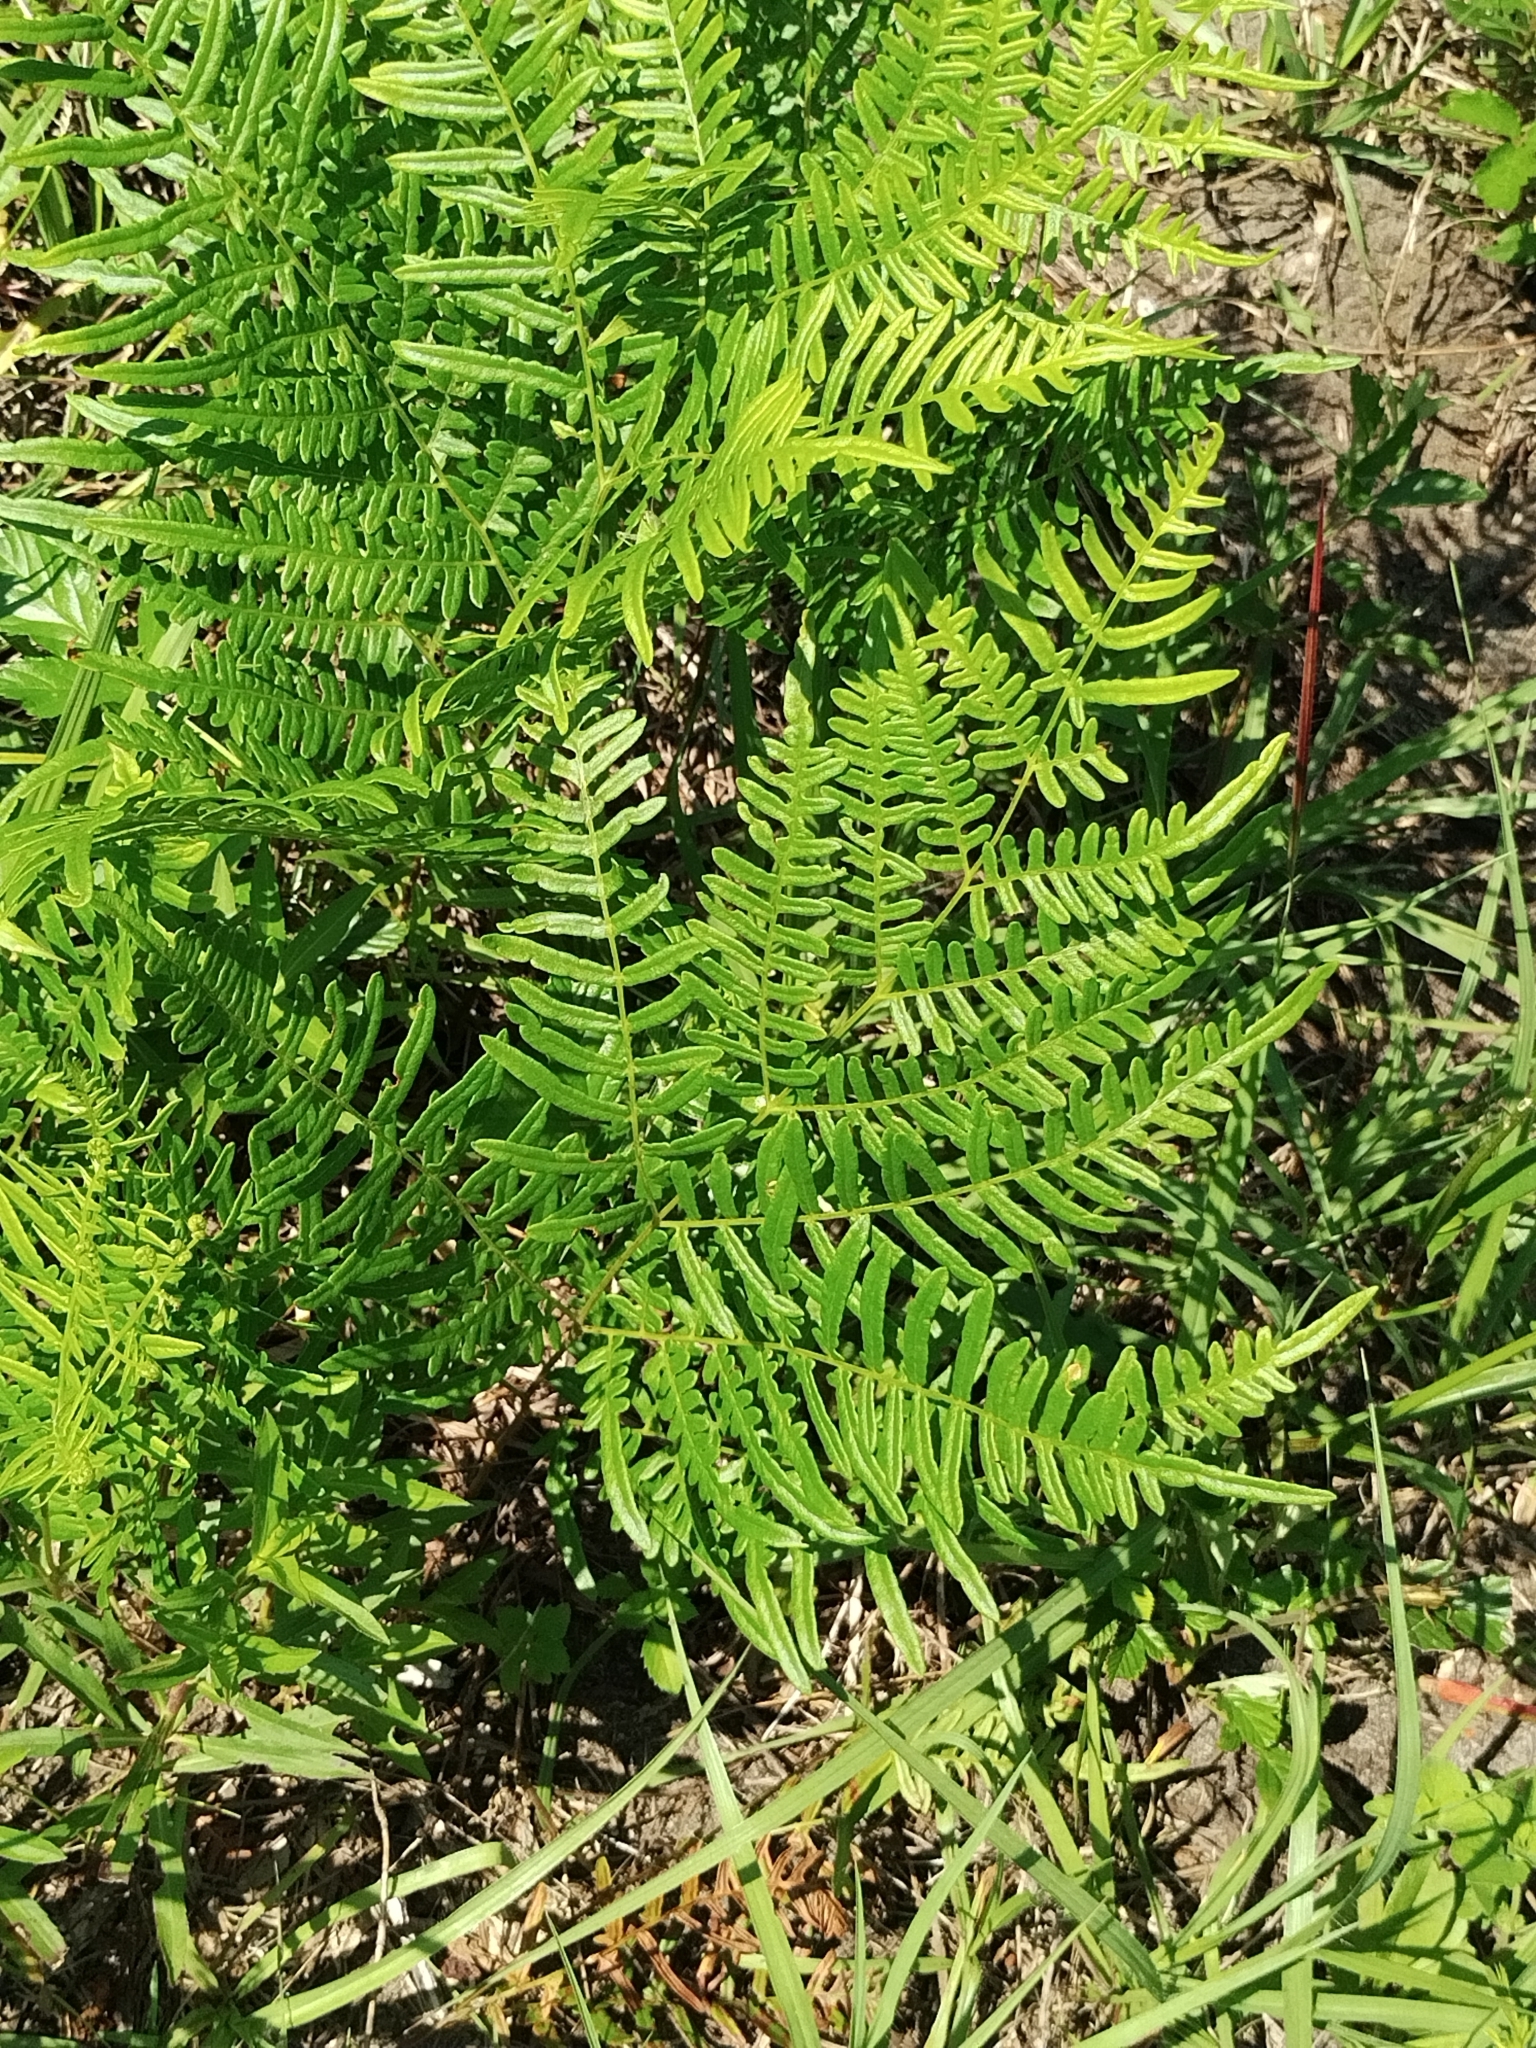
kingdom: Plantae
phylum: Tracheophyta
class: Polypodiopsida
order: Polypodiales
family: Dennstaedtiaceae
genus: Pteridium
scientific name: Pteridium aquilinum
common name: Bracken
